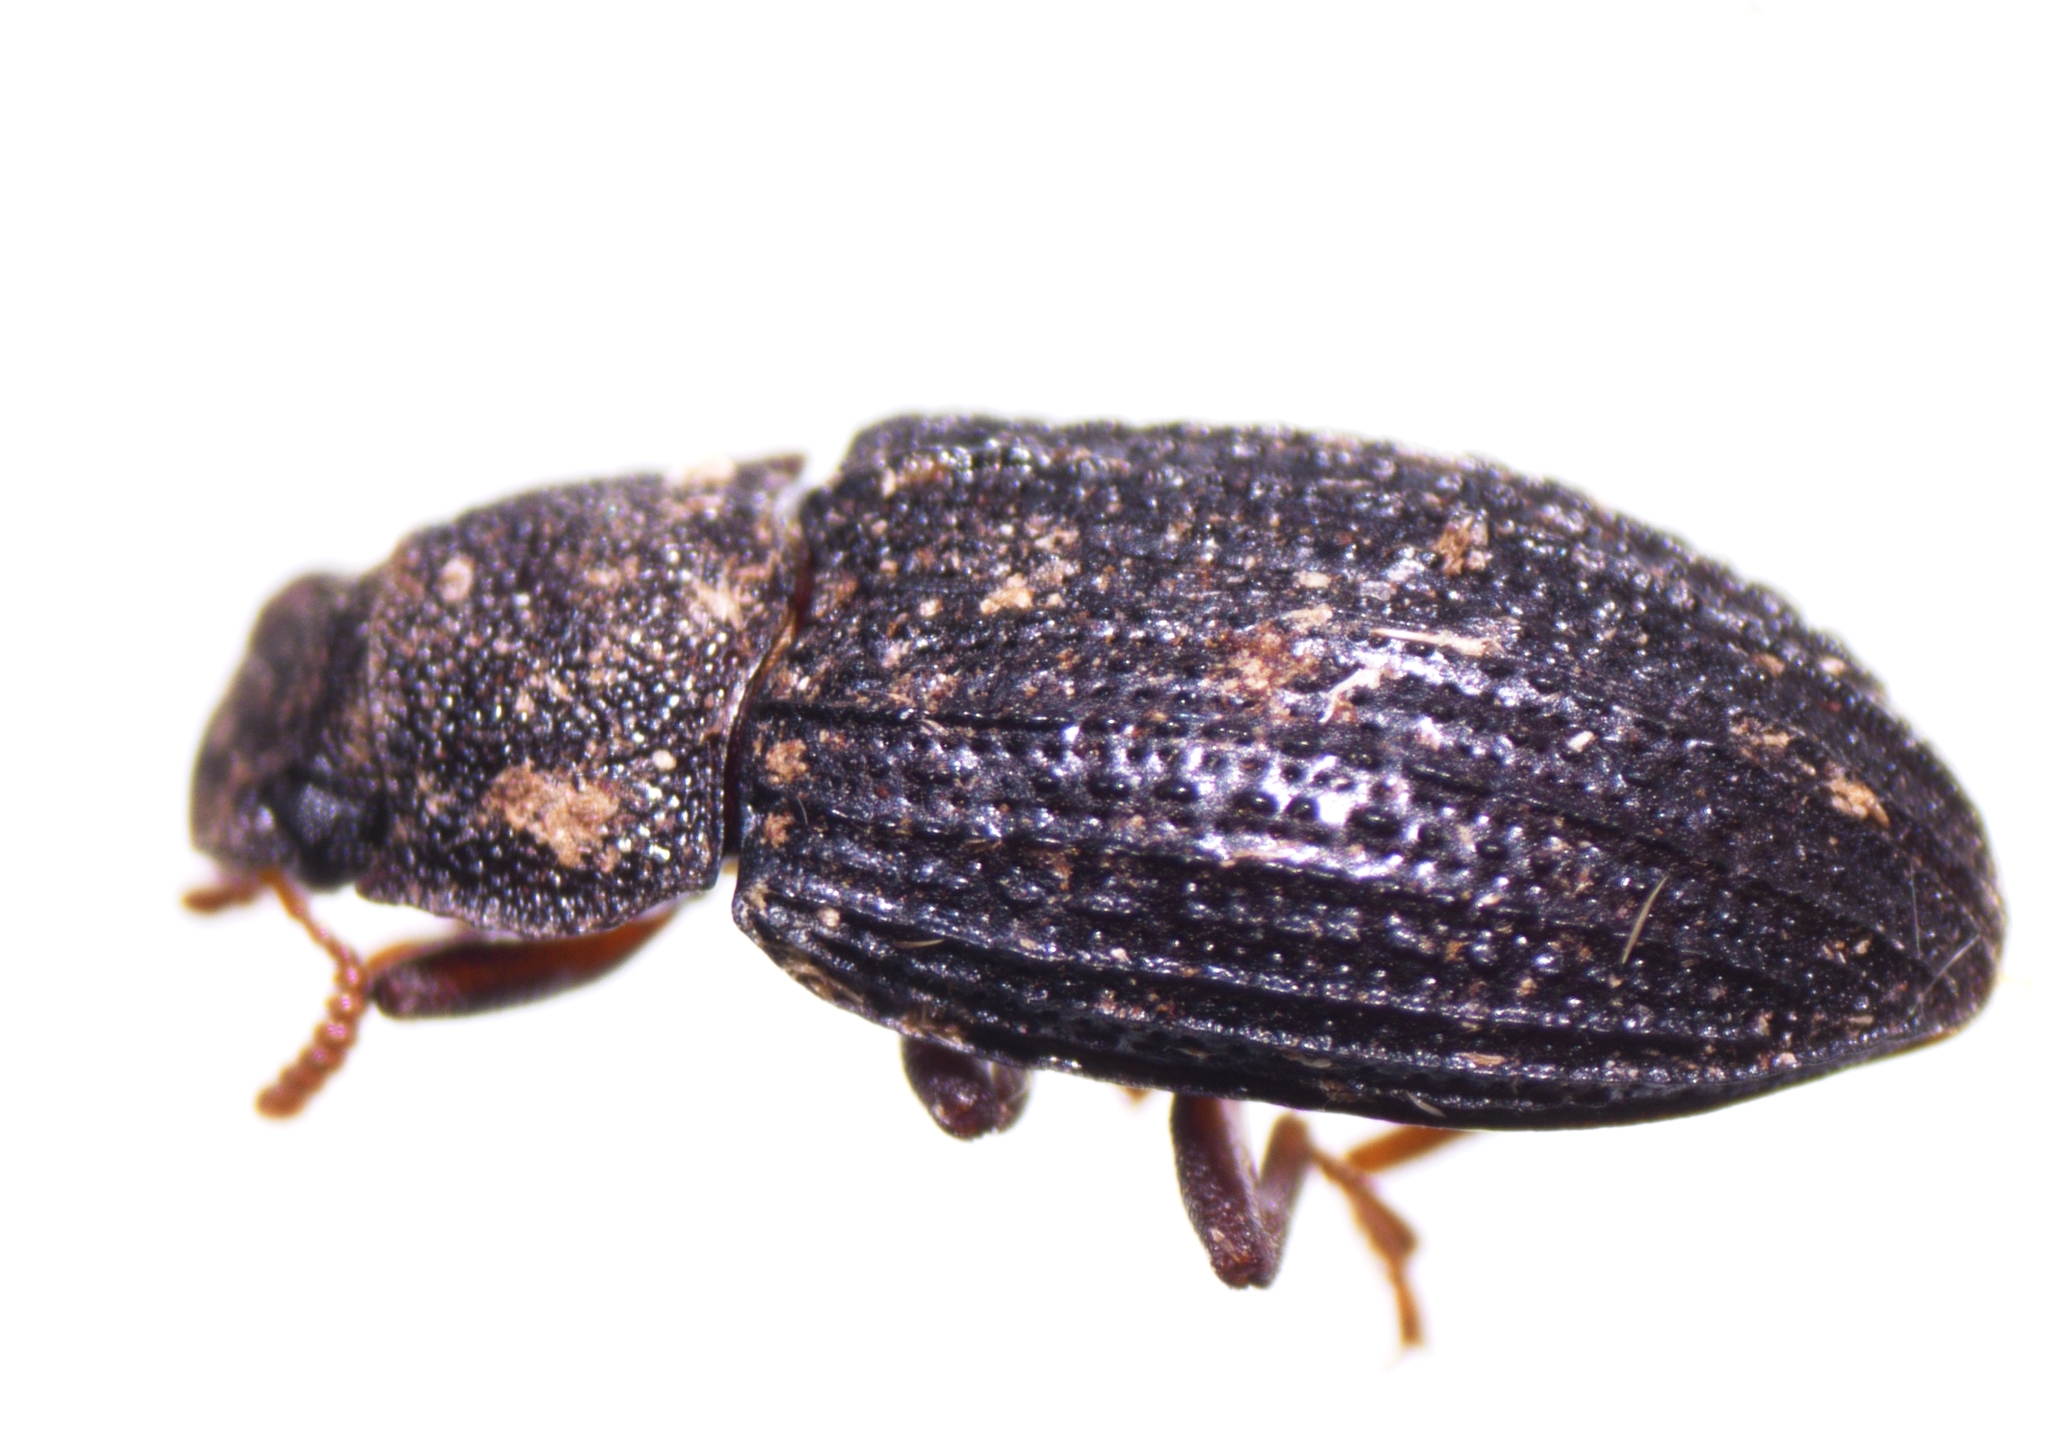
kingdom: Animalia
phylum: Arthropoda
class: Insecta
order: Coleoptera
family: Tenebrionidae
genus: Bradymerus
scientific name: Bradymerus tahitiensis
